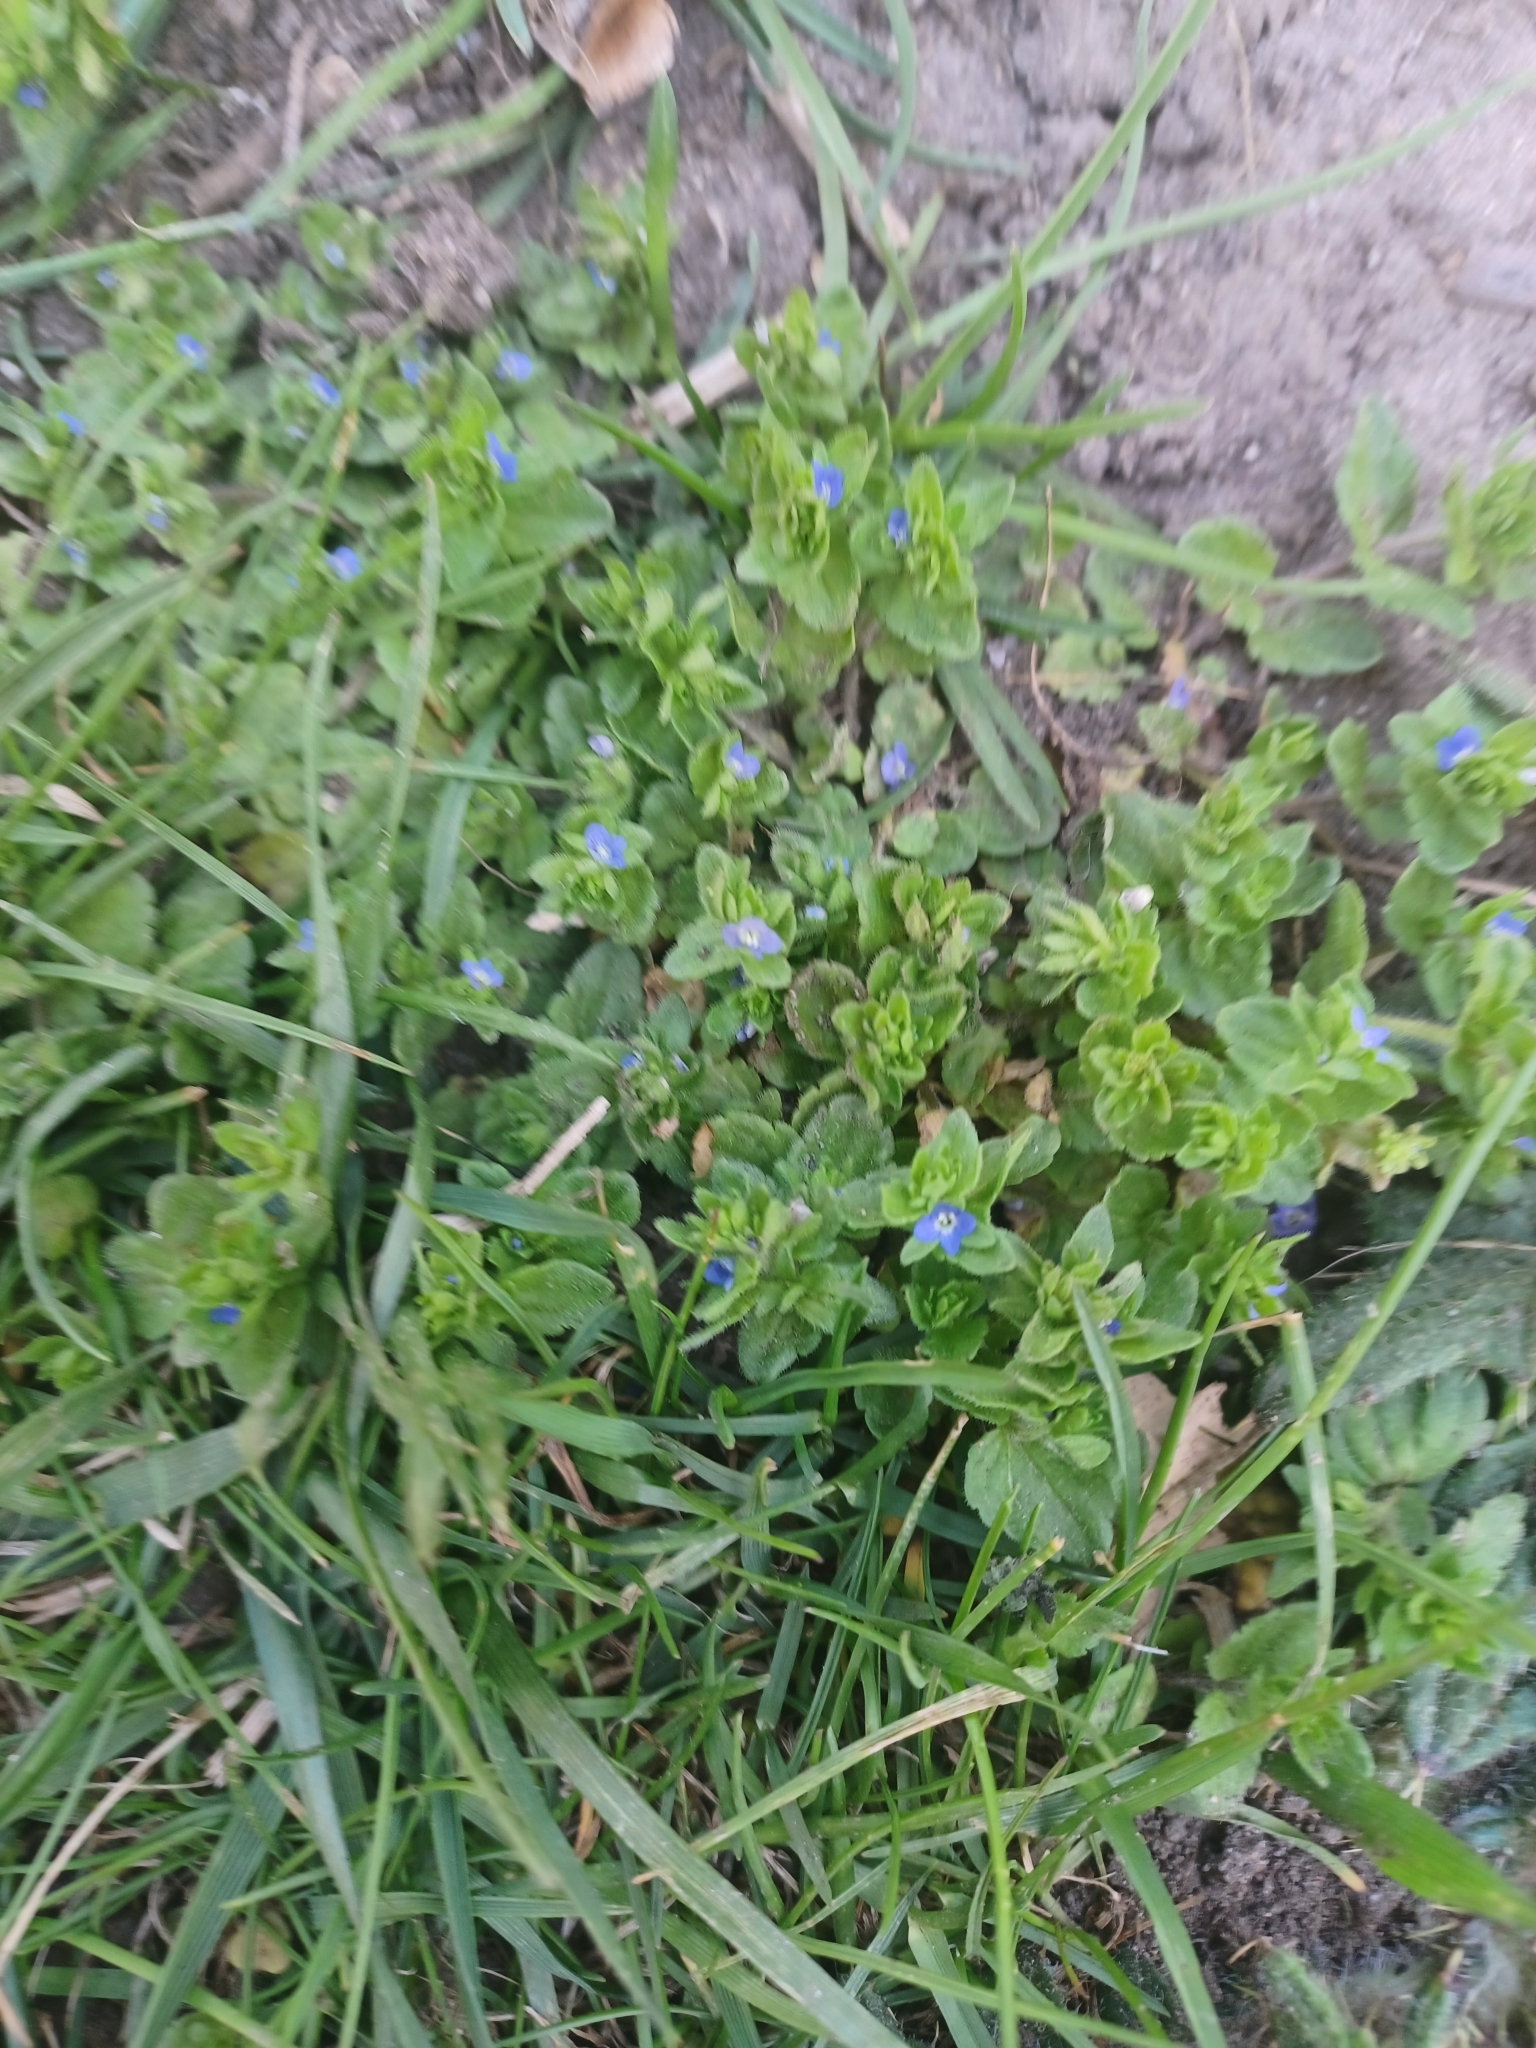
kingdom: Plantae
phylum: Tracheophyta
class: Magnoliopsida
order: Lamiales
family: Plantaginaceae
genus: Veronica
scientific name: Veronica arvensis
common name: Corn speedwell
